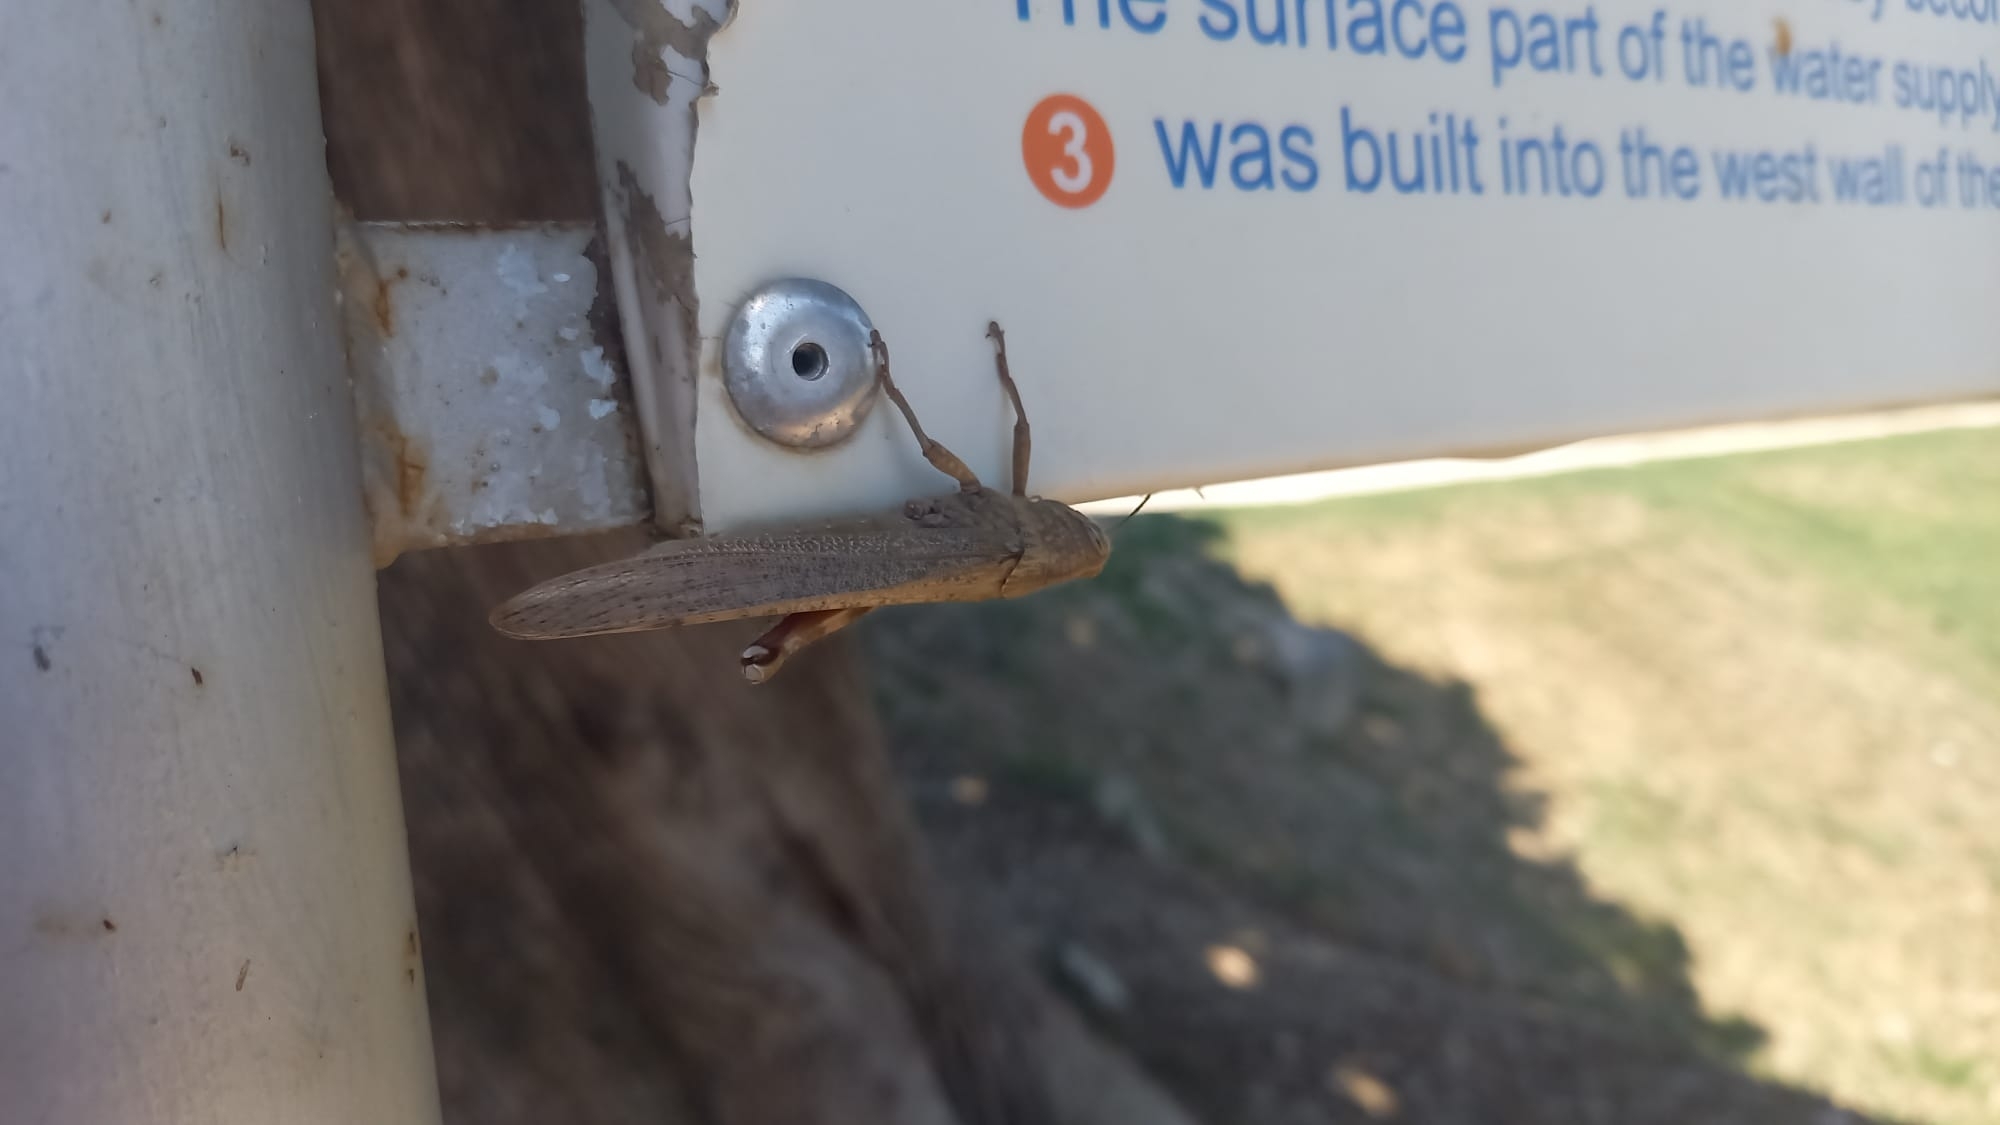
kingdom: Animalia
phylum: Arthropoda
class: Insecta
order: Orthoptera
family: Acrididae
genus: Anacridium
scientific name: Anacridium aegyptium
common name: Egyptian grasshopper
